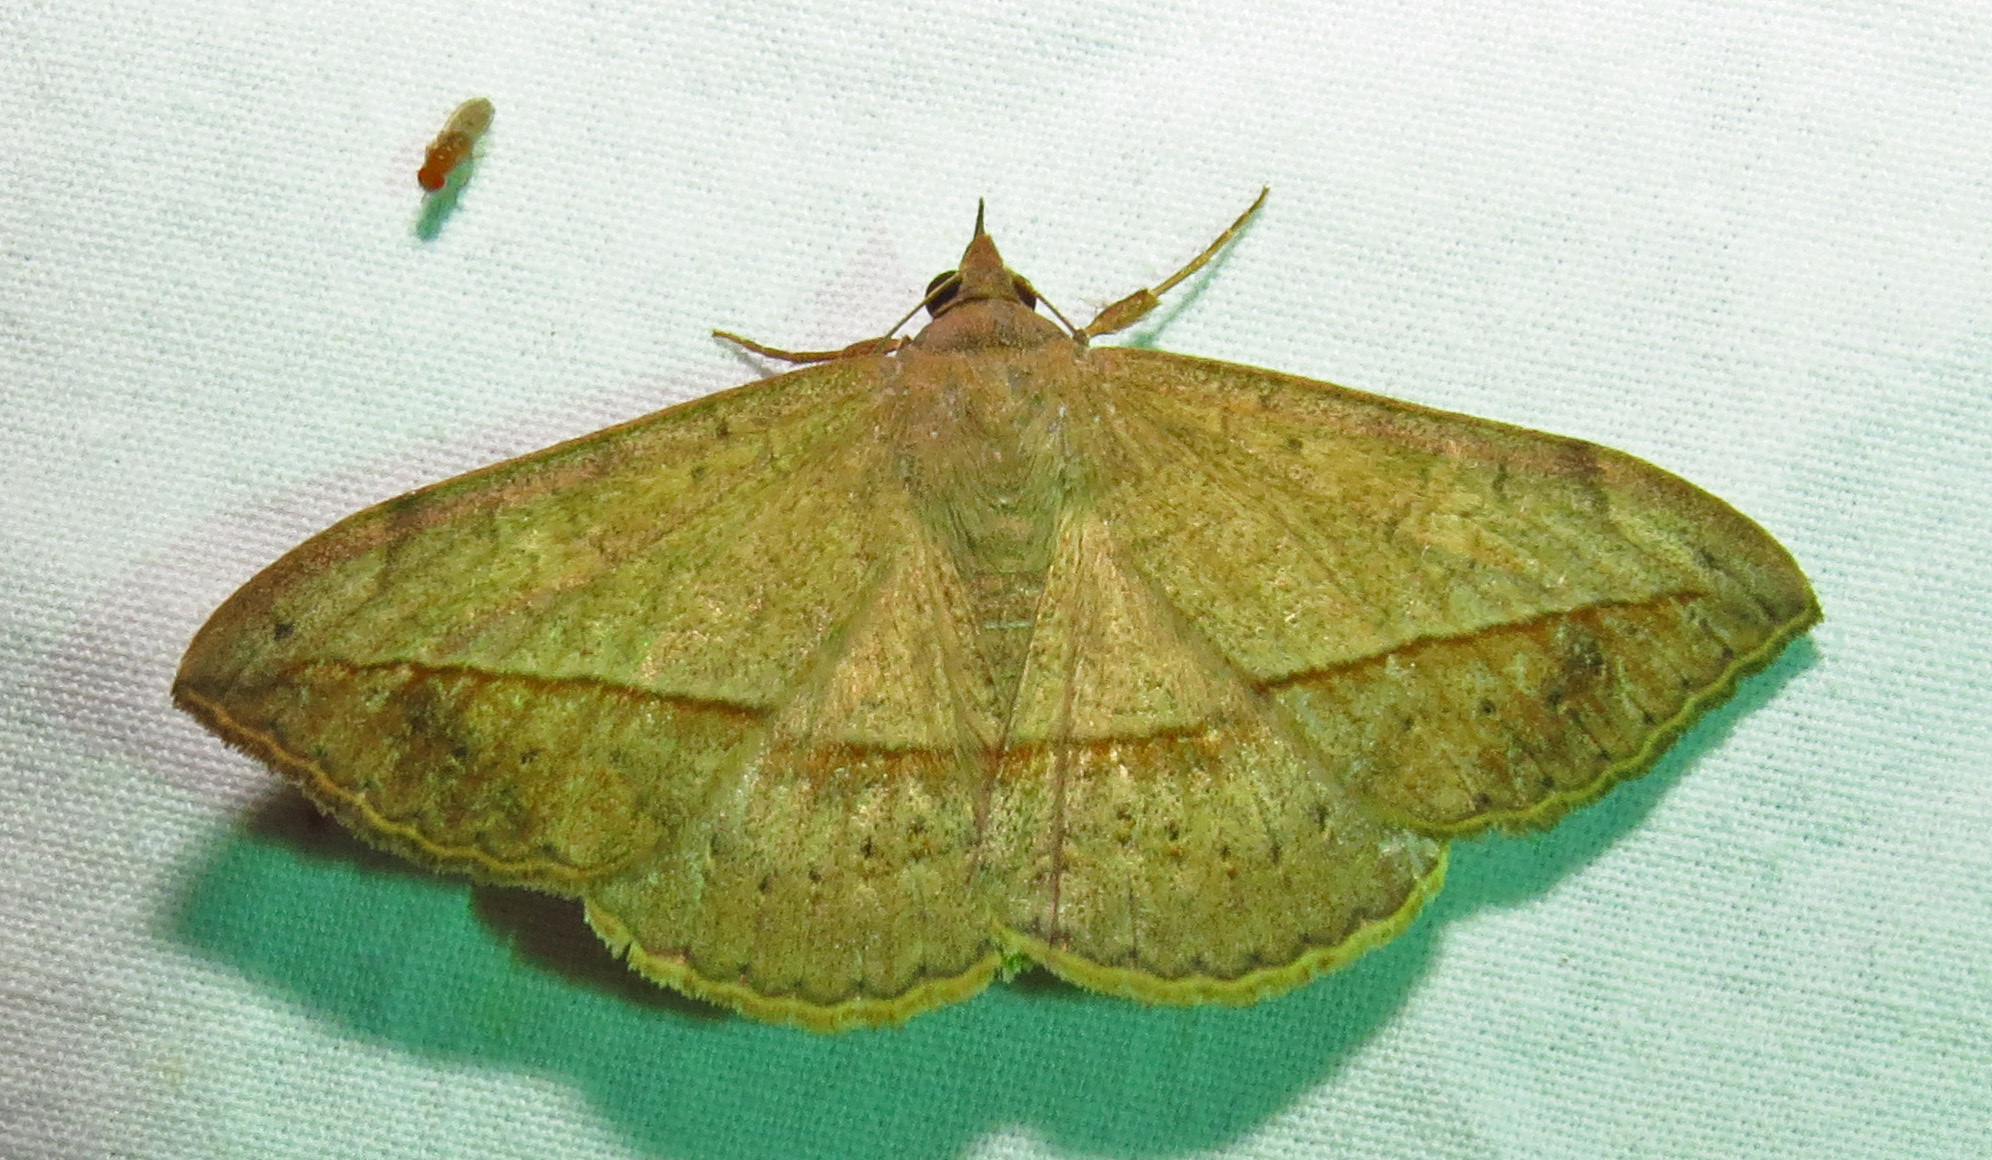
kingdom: Animalia
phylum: Arthropoda
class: Insecta
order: Lepidoptera
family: Erebidae
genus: Anticarsia
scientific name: Anticarsia gemmatalis
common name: Cutworm moth
